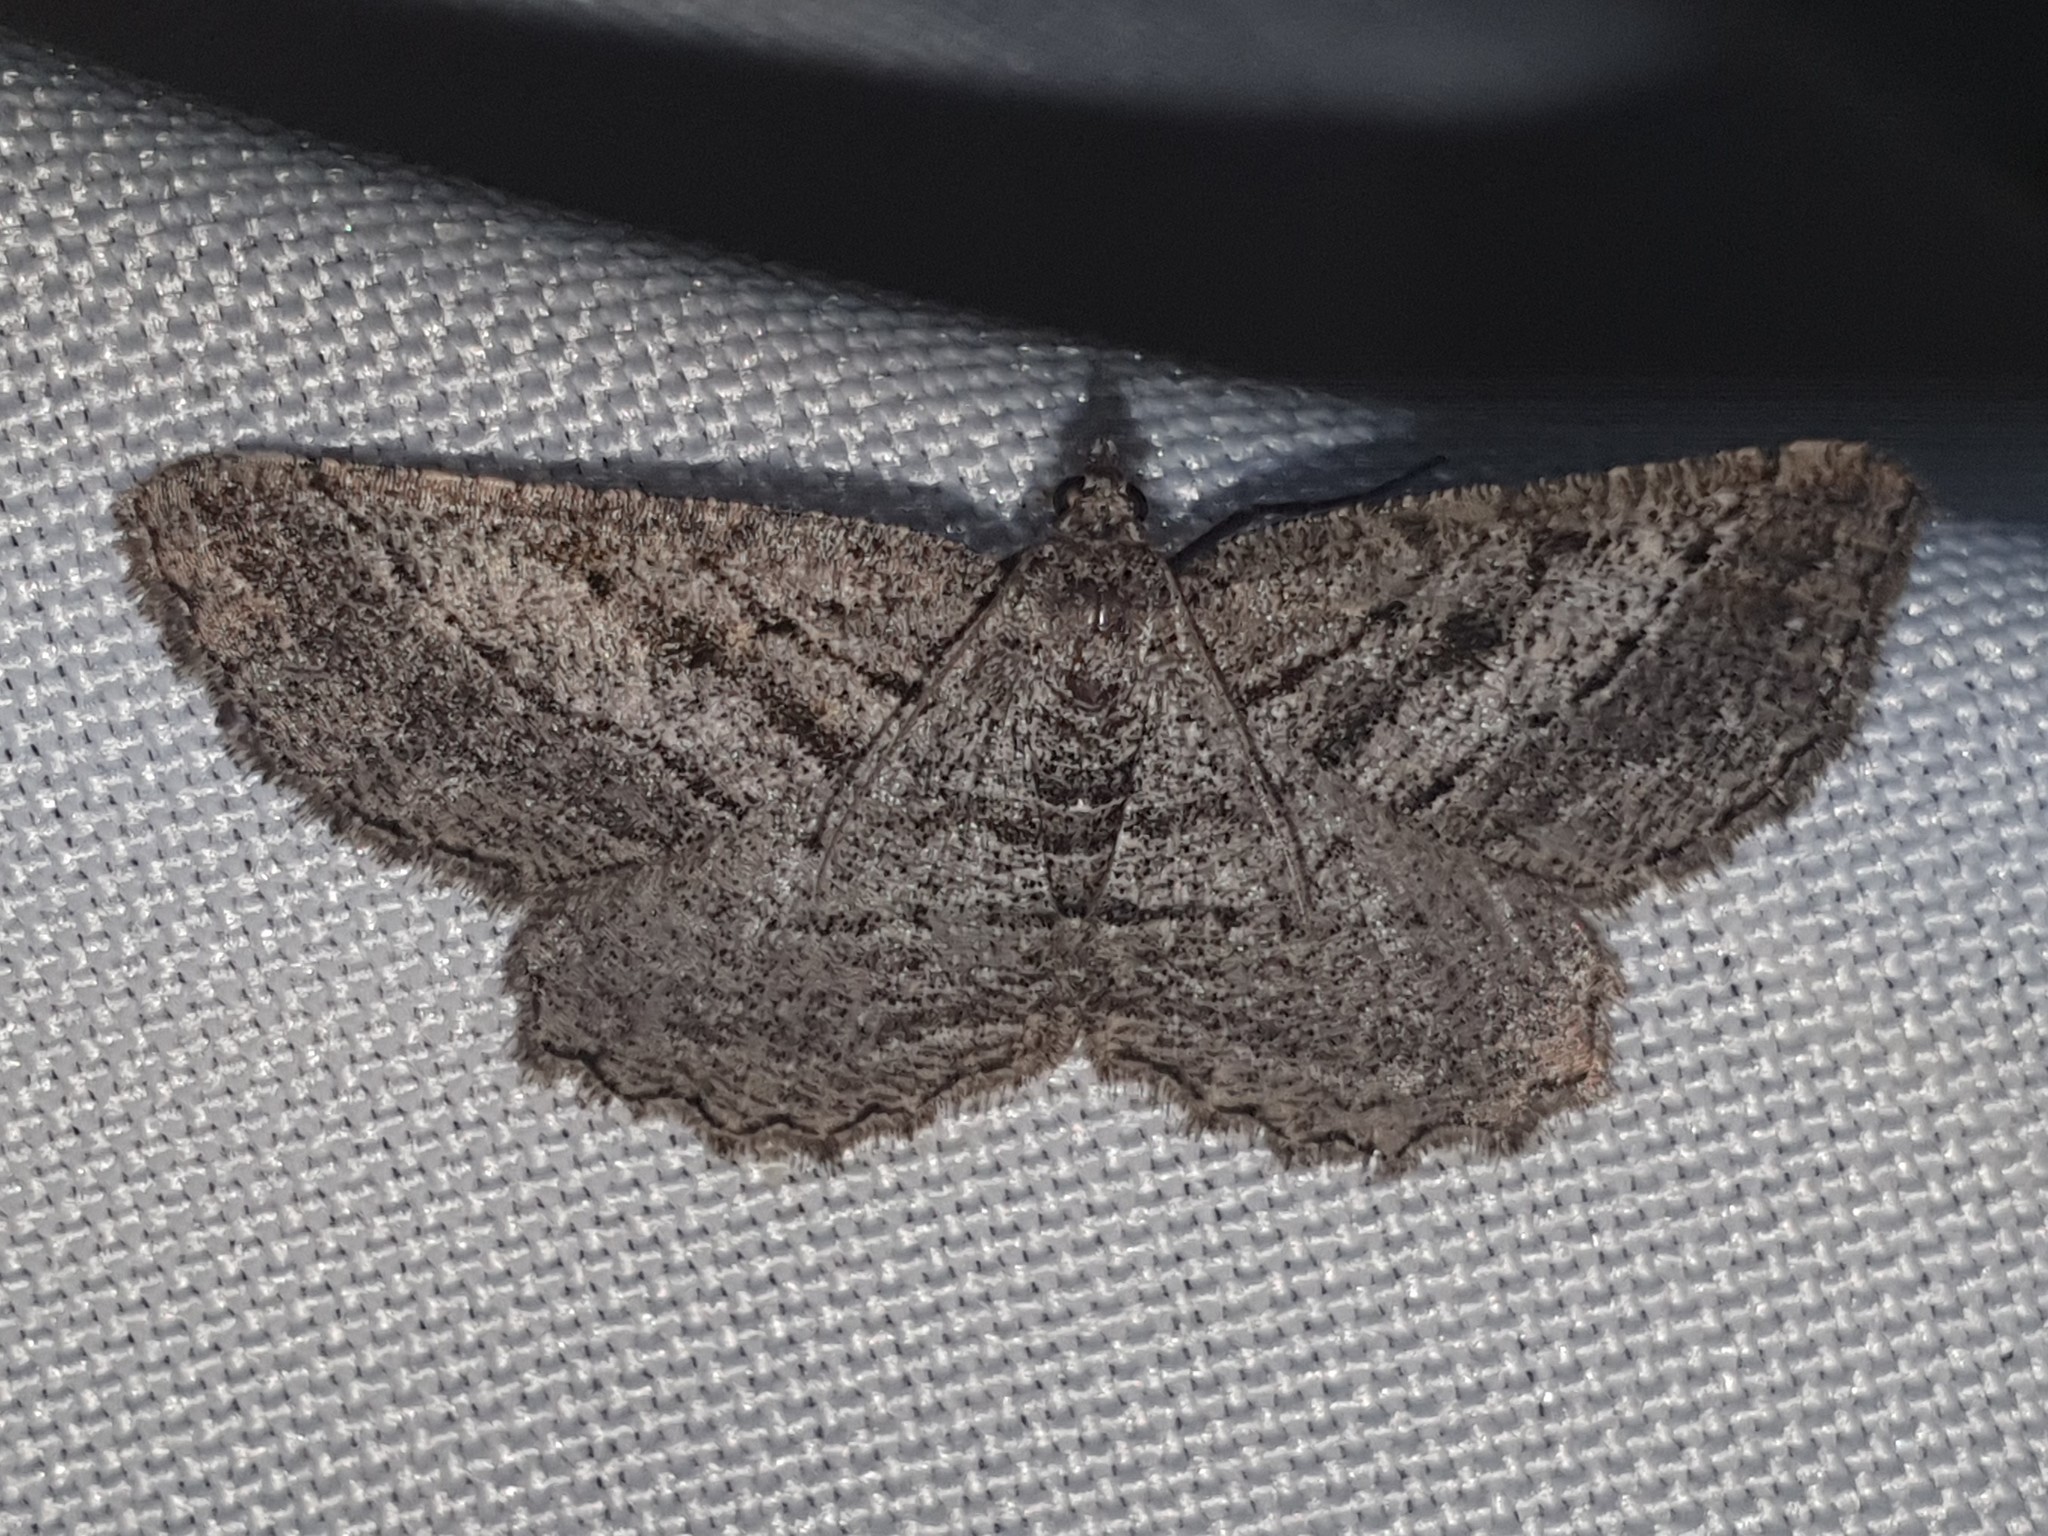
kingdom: Animalia
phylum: Arthropoda
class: Insecta
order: Lepidoptera
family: Geometridae
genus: Rhoptria
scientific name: Rhoptria asperaria
